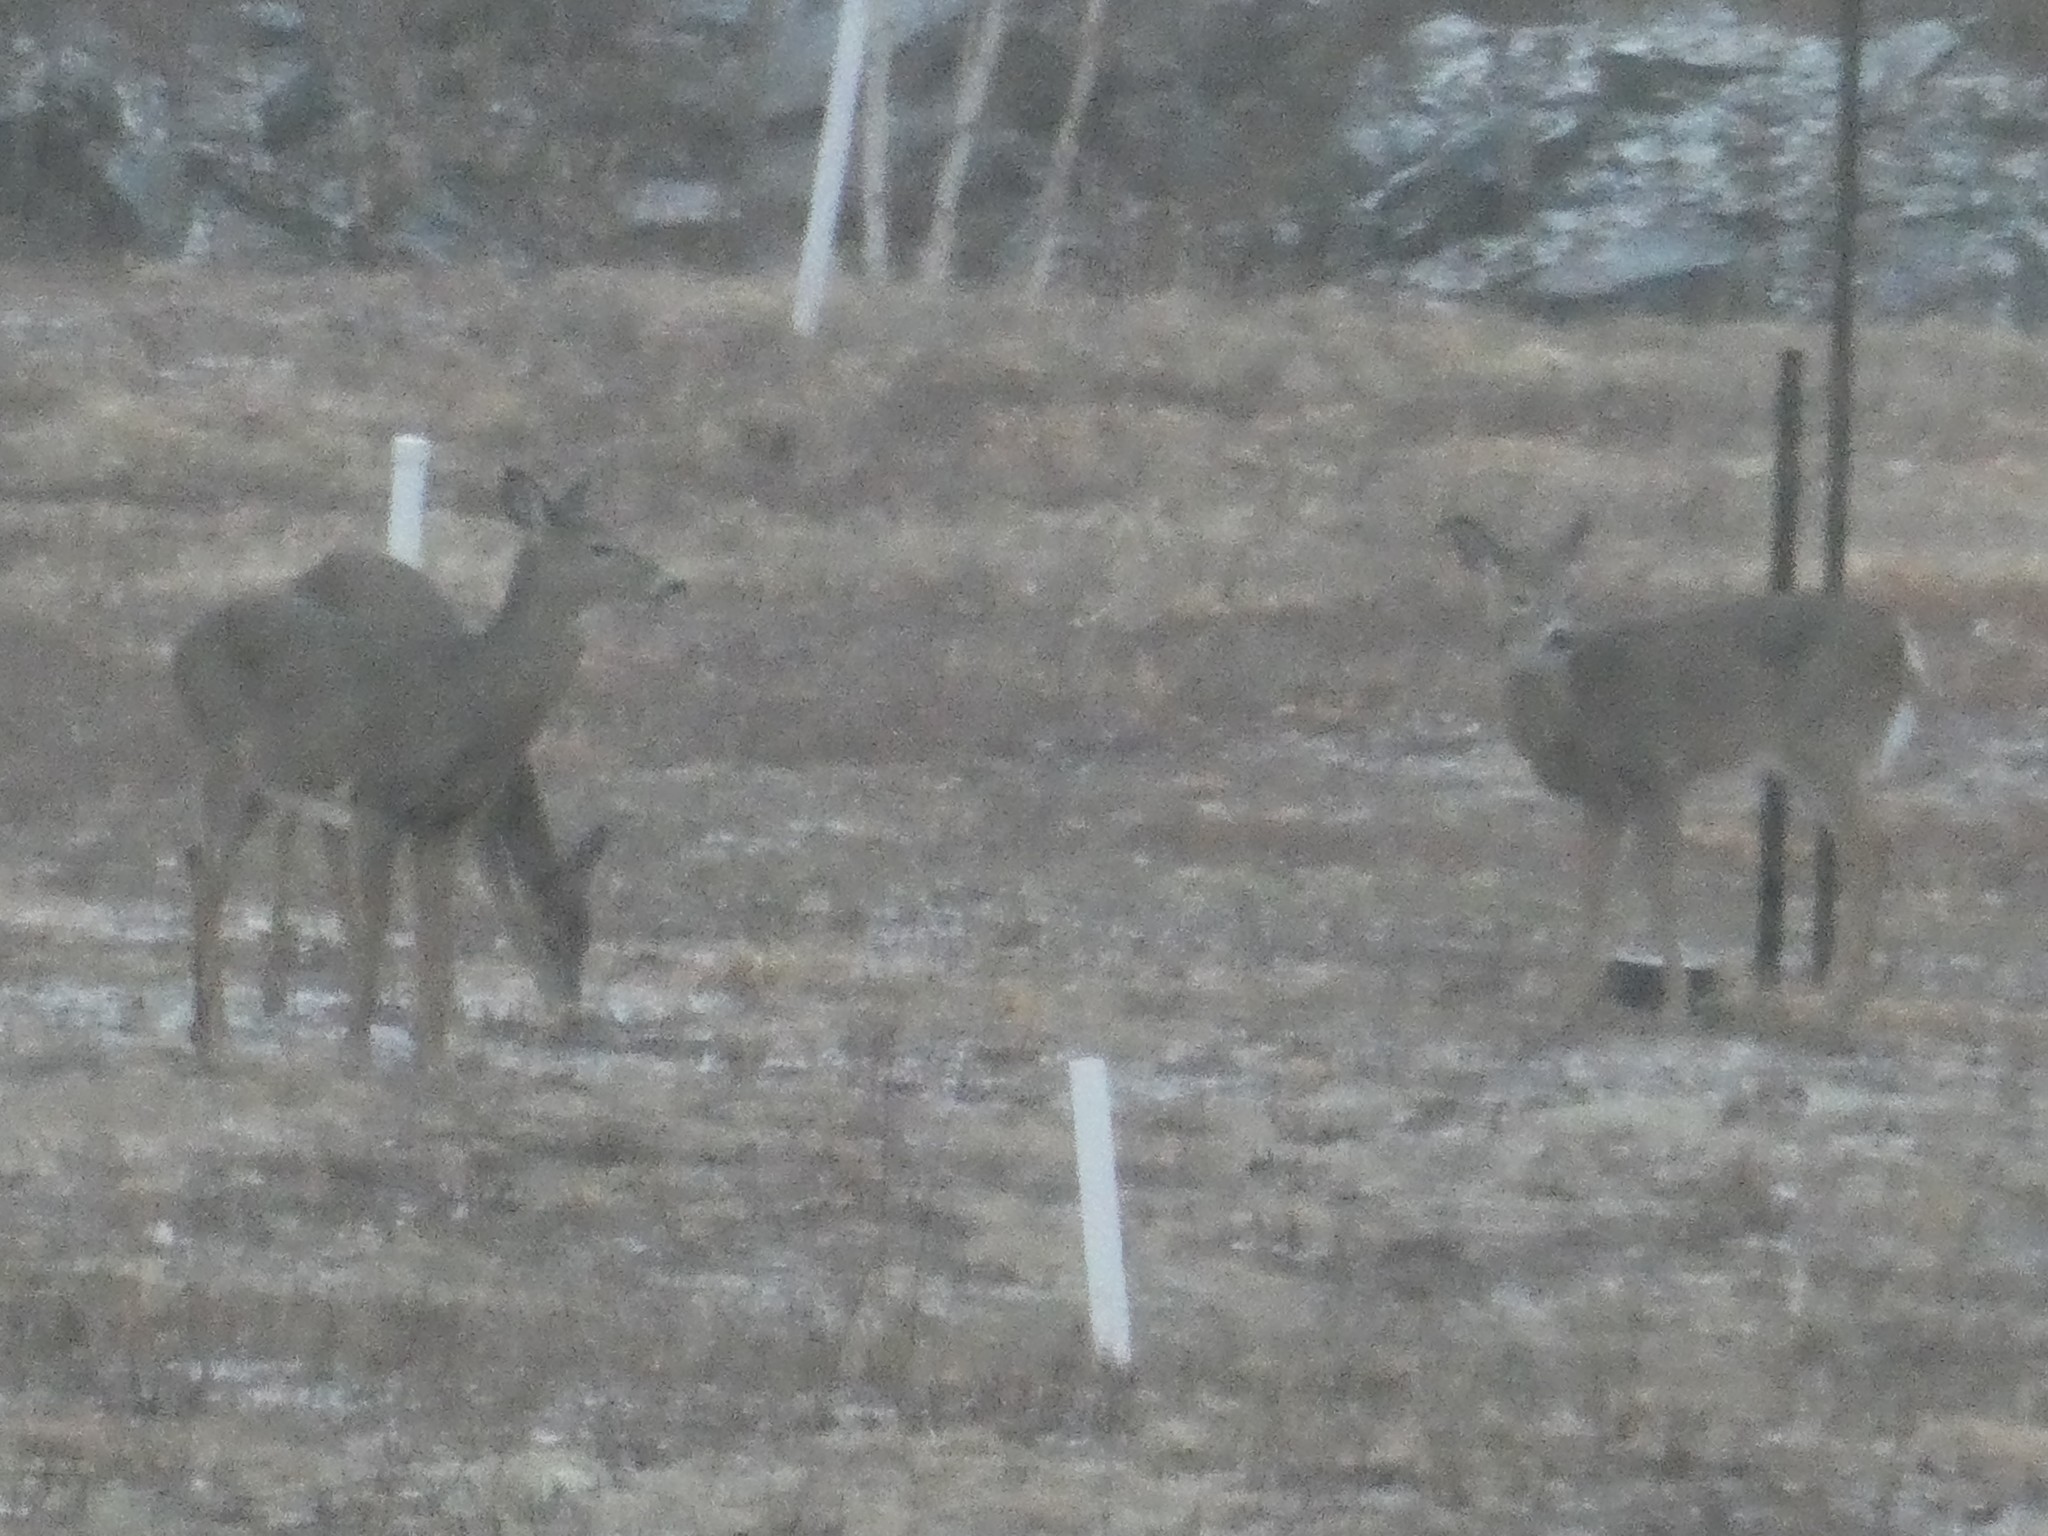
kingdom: Animalia
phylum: Chordata
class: Mammalia
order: Artiodactyla
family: Cervidae
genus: Odocoileus
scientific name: Odocoileus virginianus
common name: White-tailed deer
